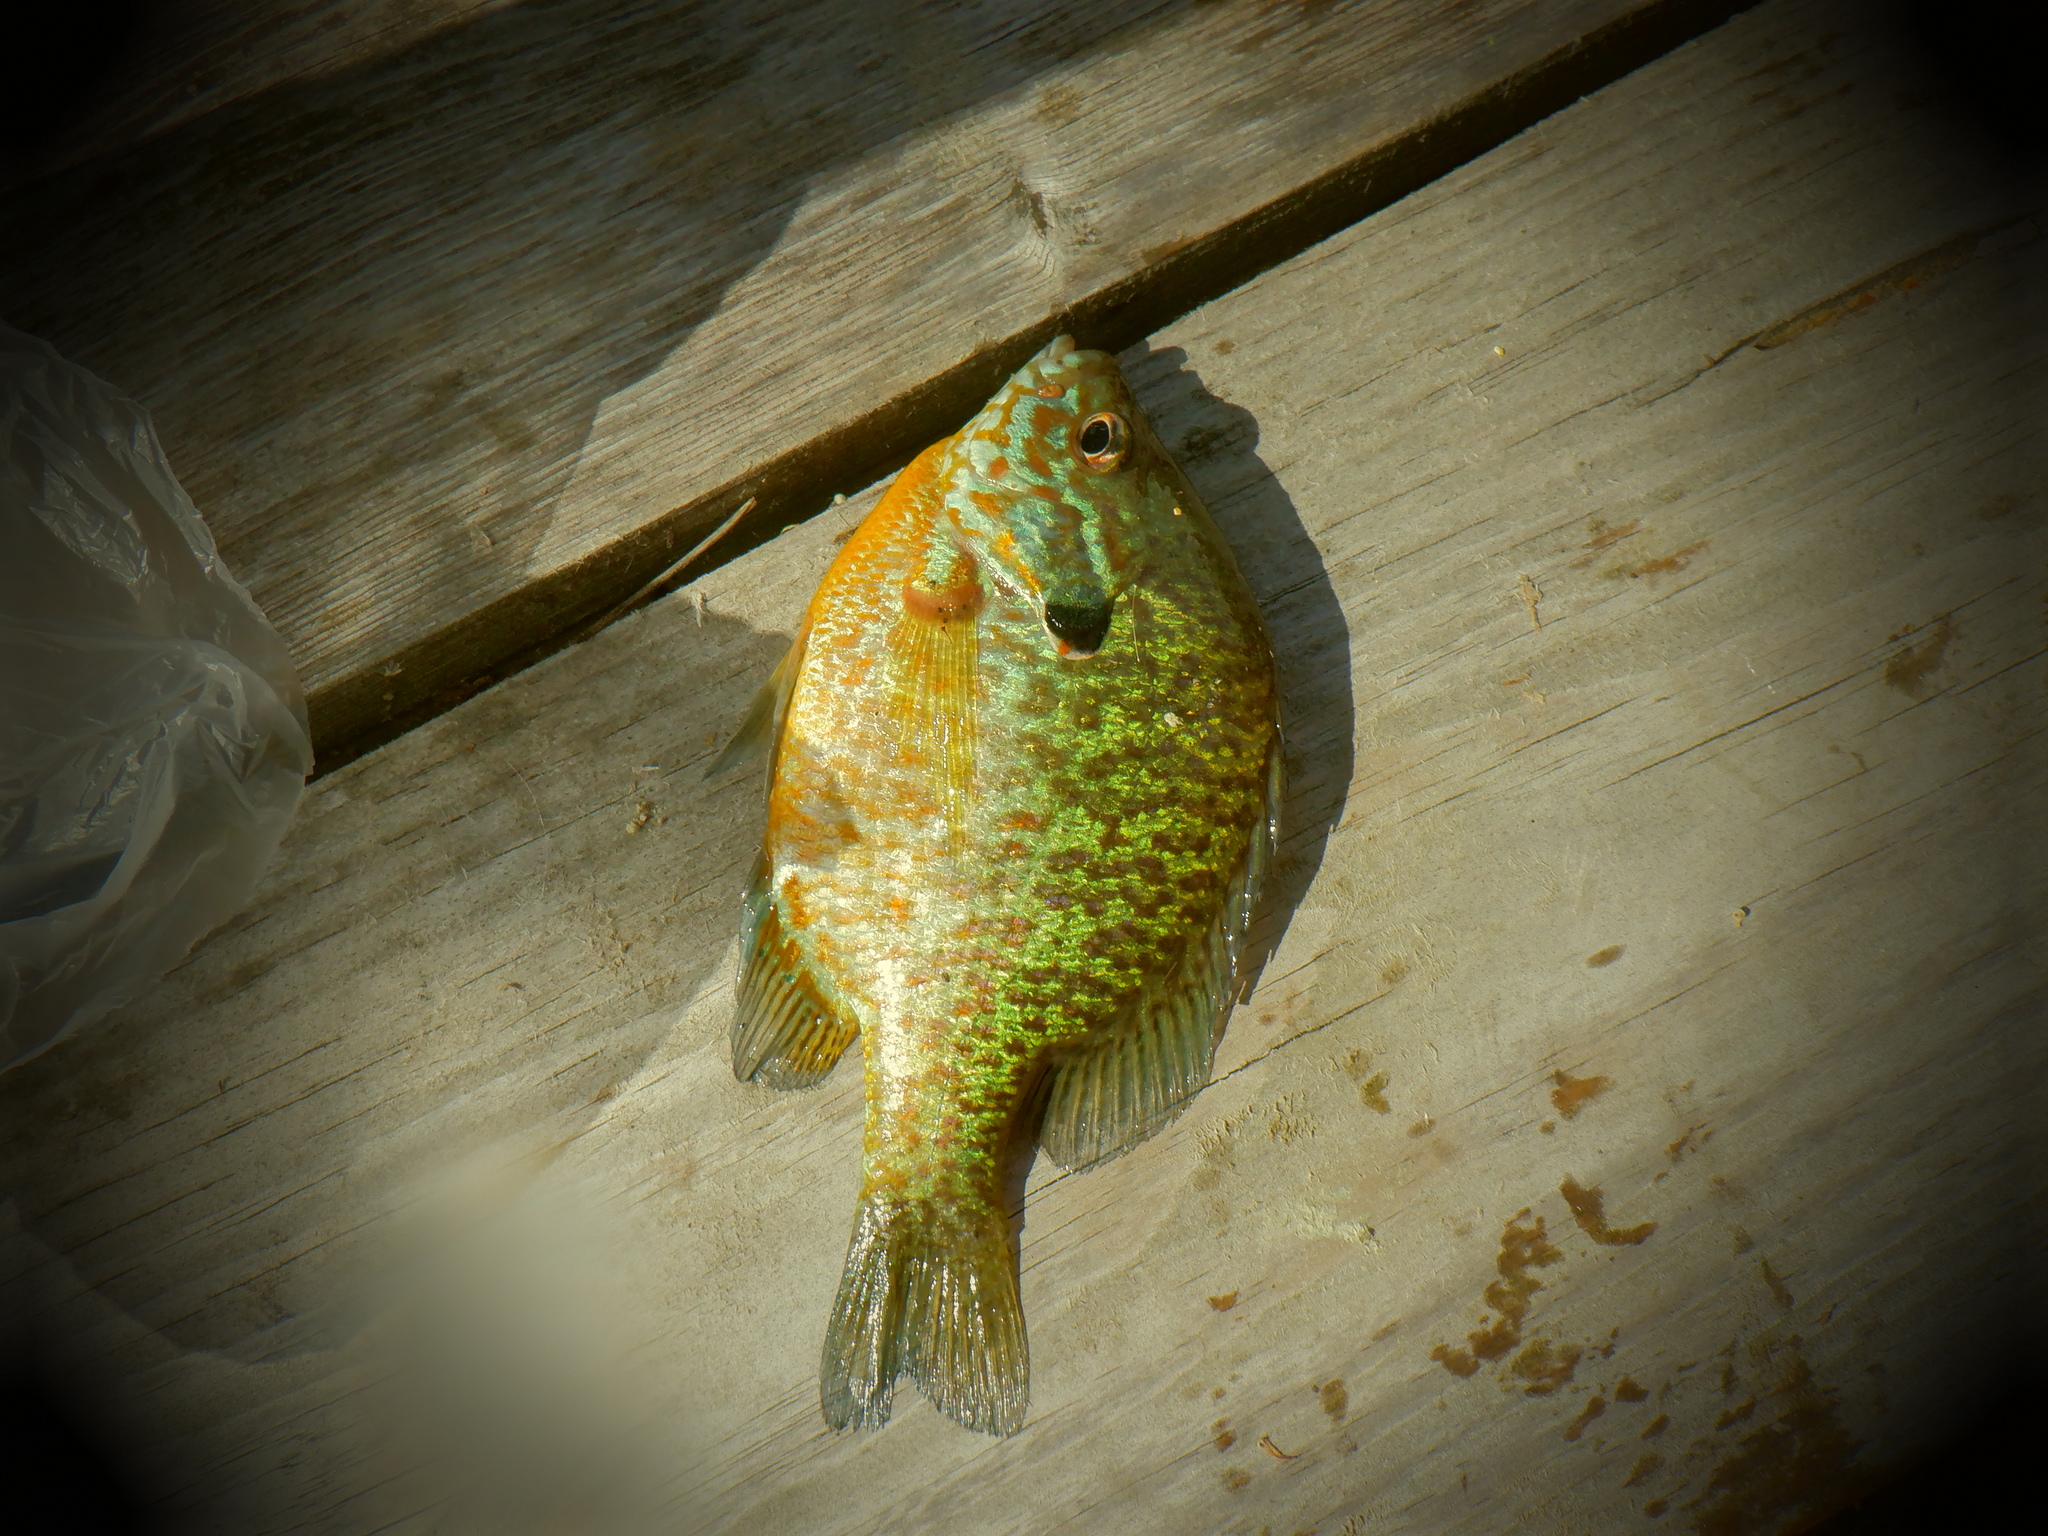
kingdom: Animalia
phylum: Chordata
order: Perciformes
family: Centrarchidae
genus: Lepomis
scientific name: Lepomis
